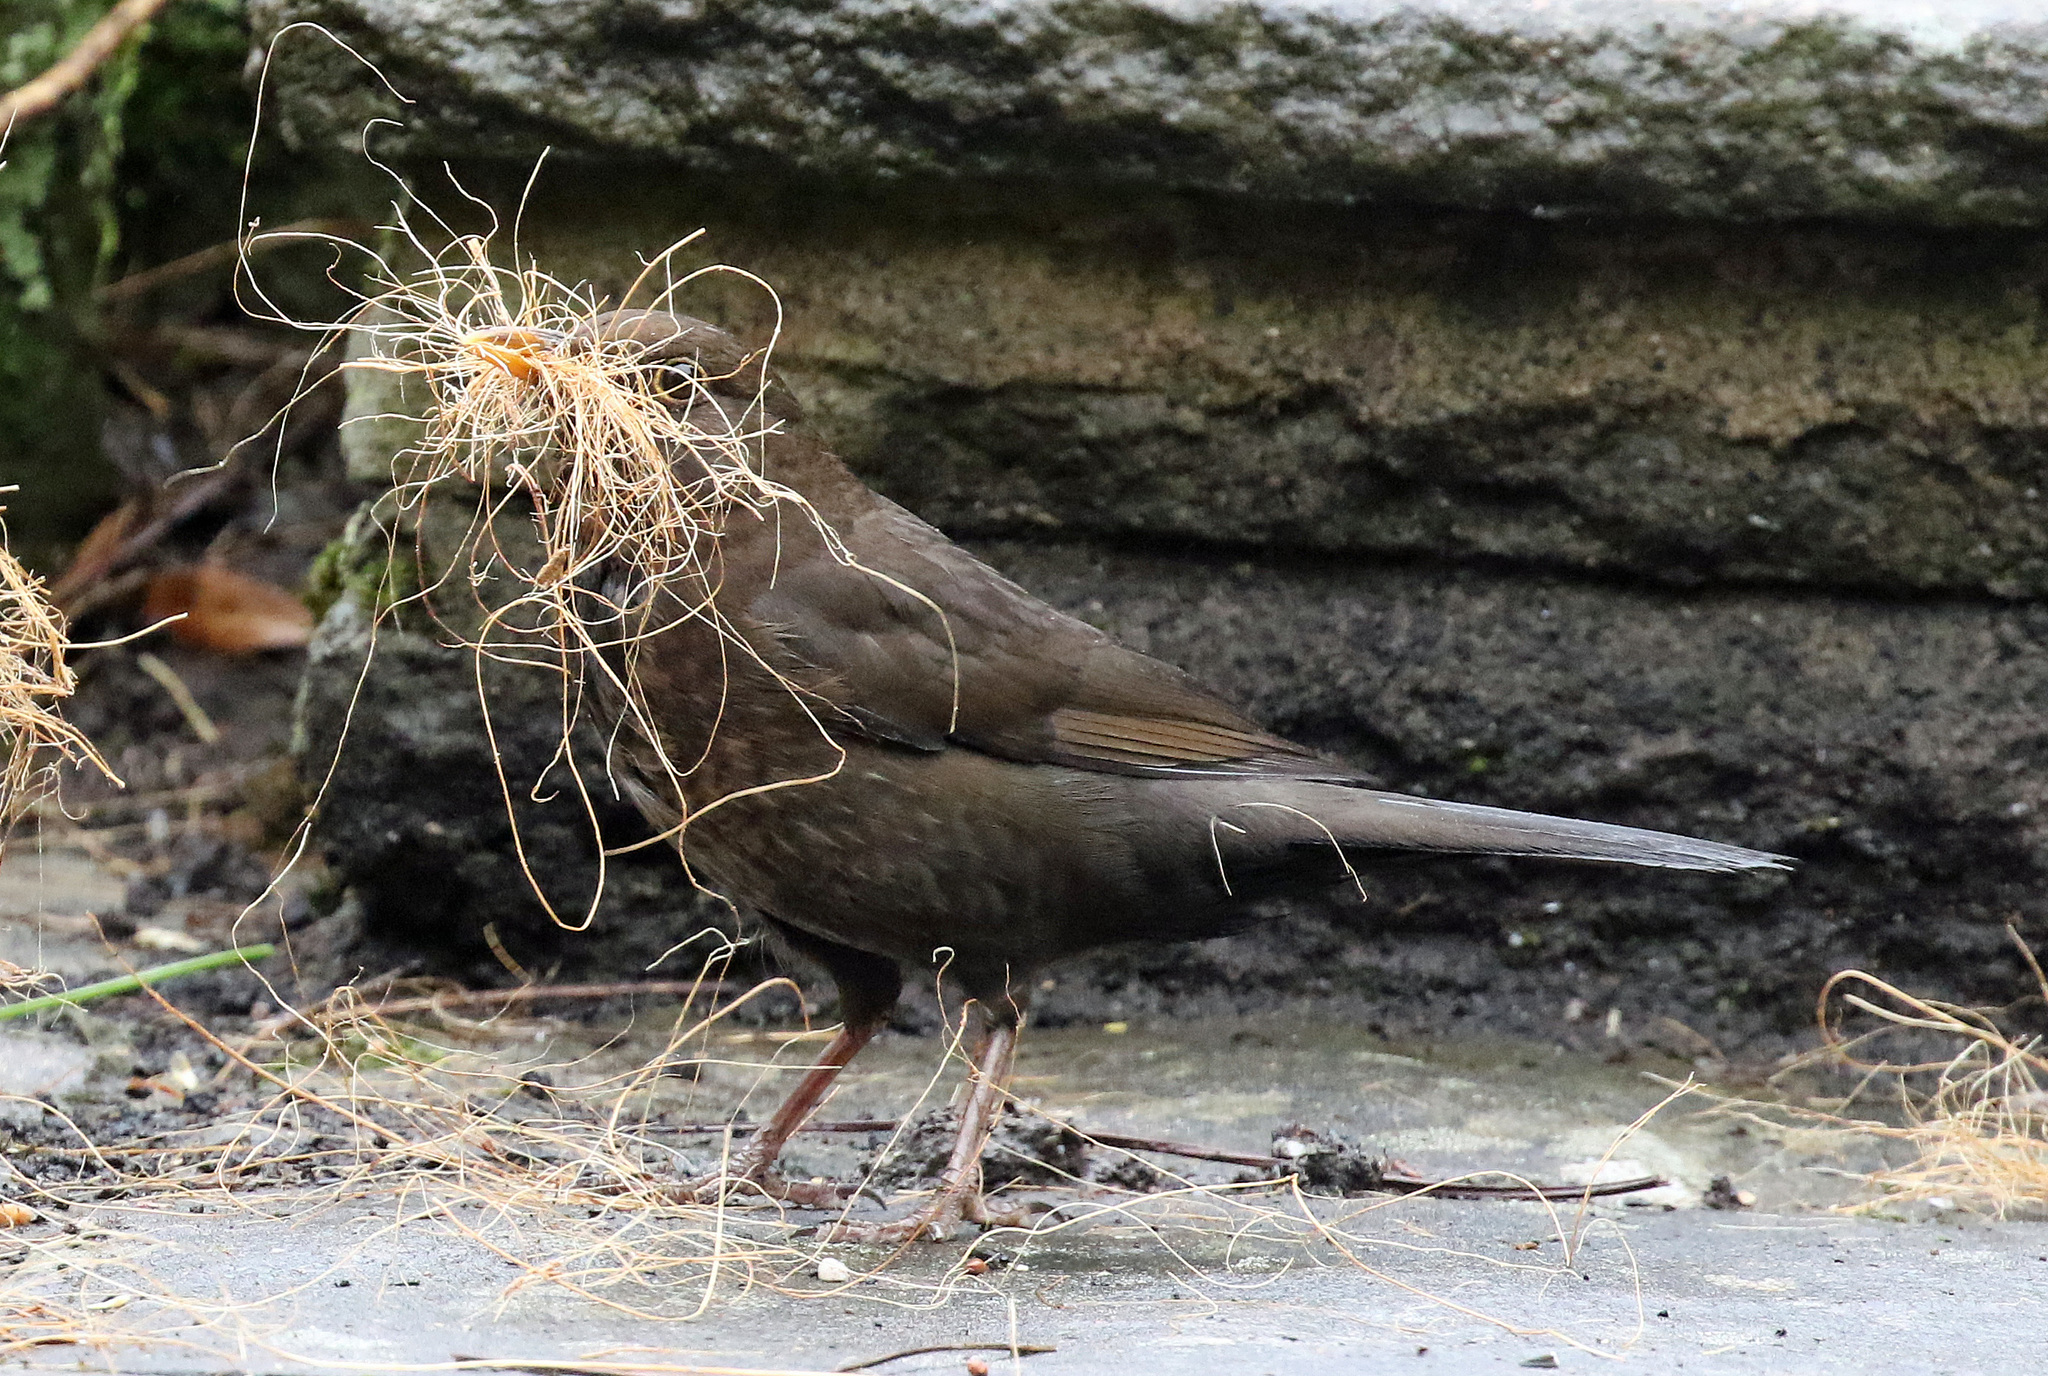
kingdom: Animalia
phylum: Chordata
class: Aves
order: Passeriformes
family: Turdidae
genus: Turdus
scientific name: Turdus merula
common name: Common blackbird
